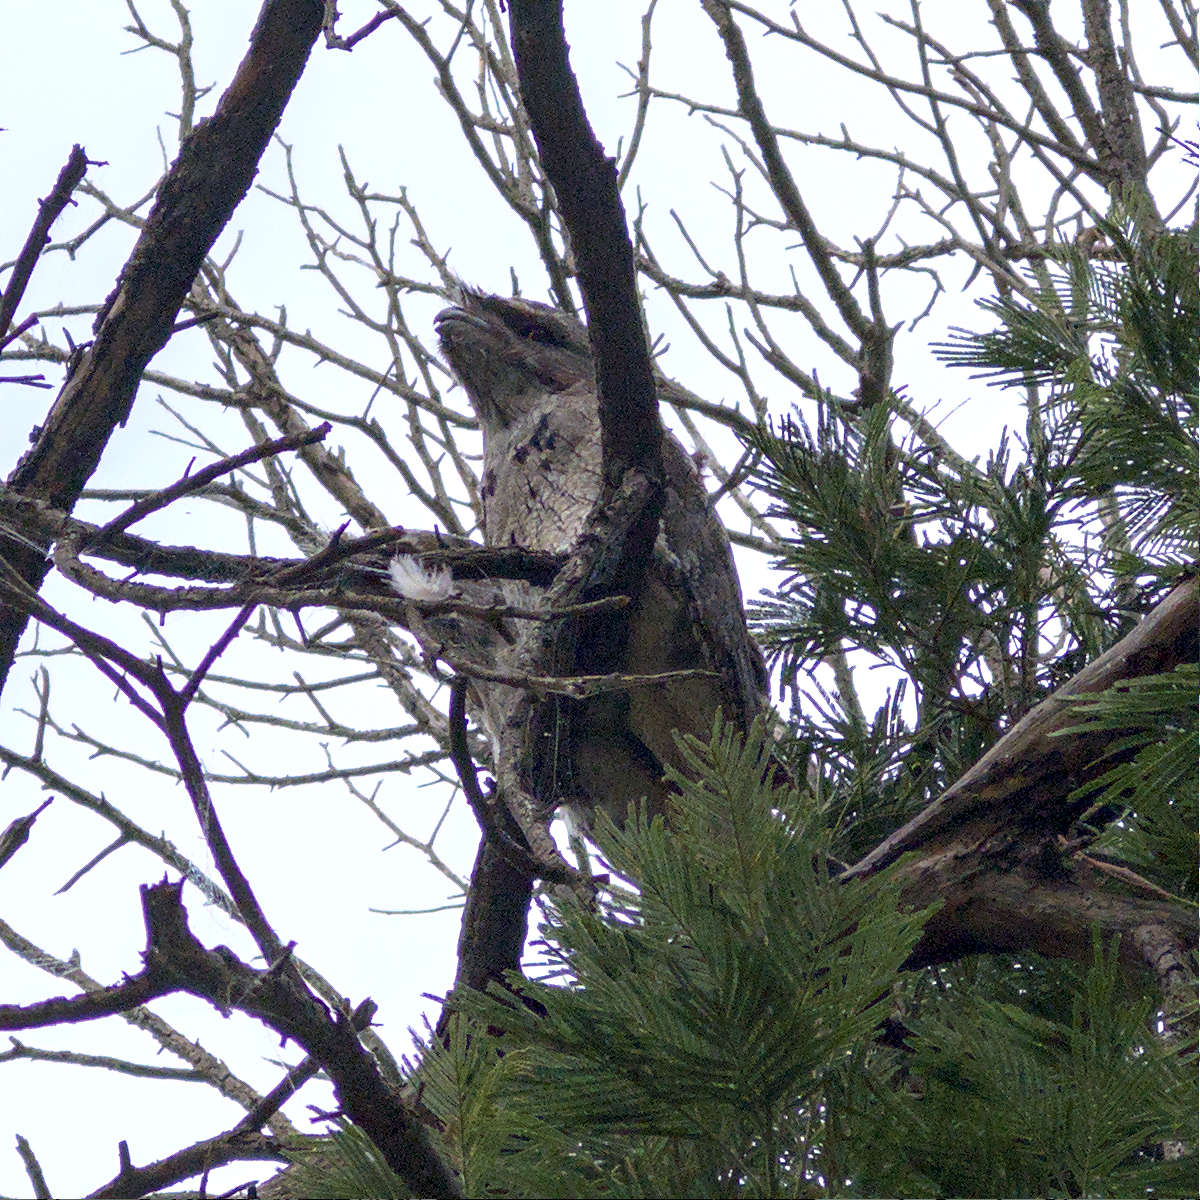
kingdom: Animalia
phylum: Chordata
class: Aves
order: Caprimulgiformes
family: Podargidae
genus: Podargus
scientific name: Podargus strigoides
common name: Tawny frogmouth
